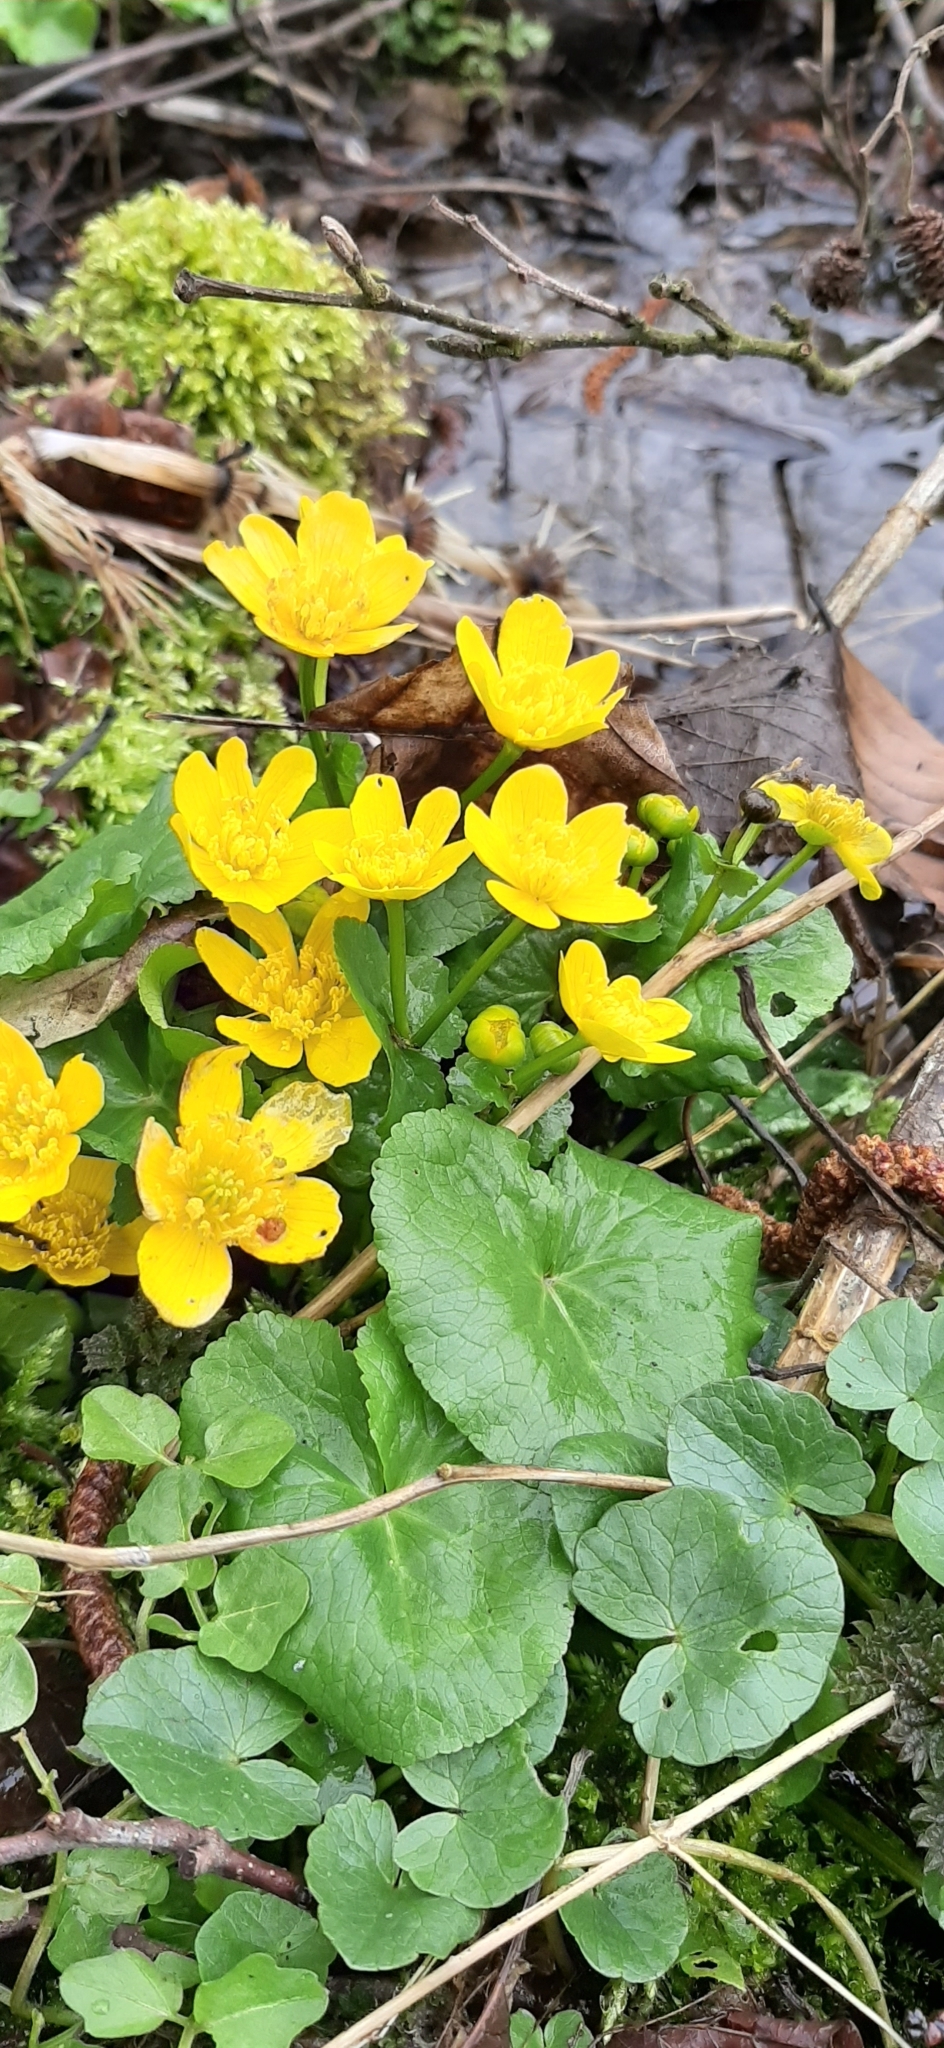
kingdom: Plantae
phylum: Tracheophyta
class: Magnoliopsida
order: Ranunculales
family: Ranunculaceae
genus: Caltha
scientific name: Caltha palustris
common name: Marsh marigold
